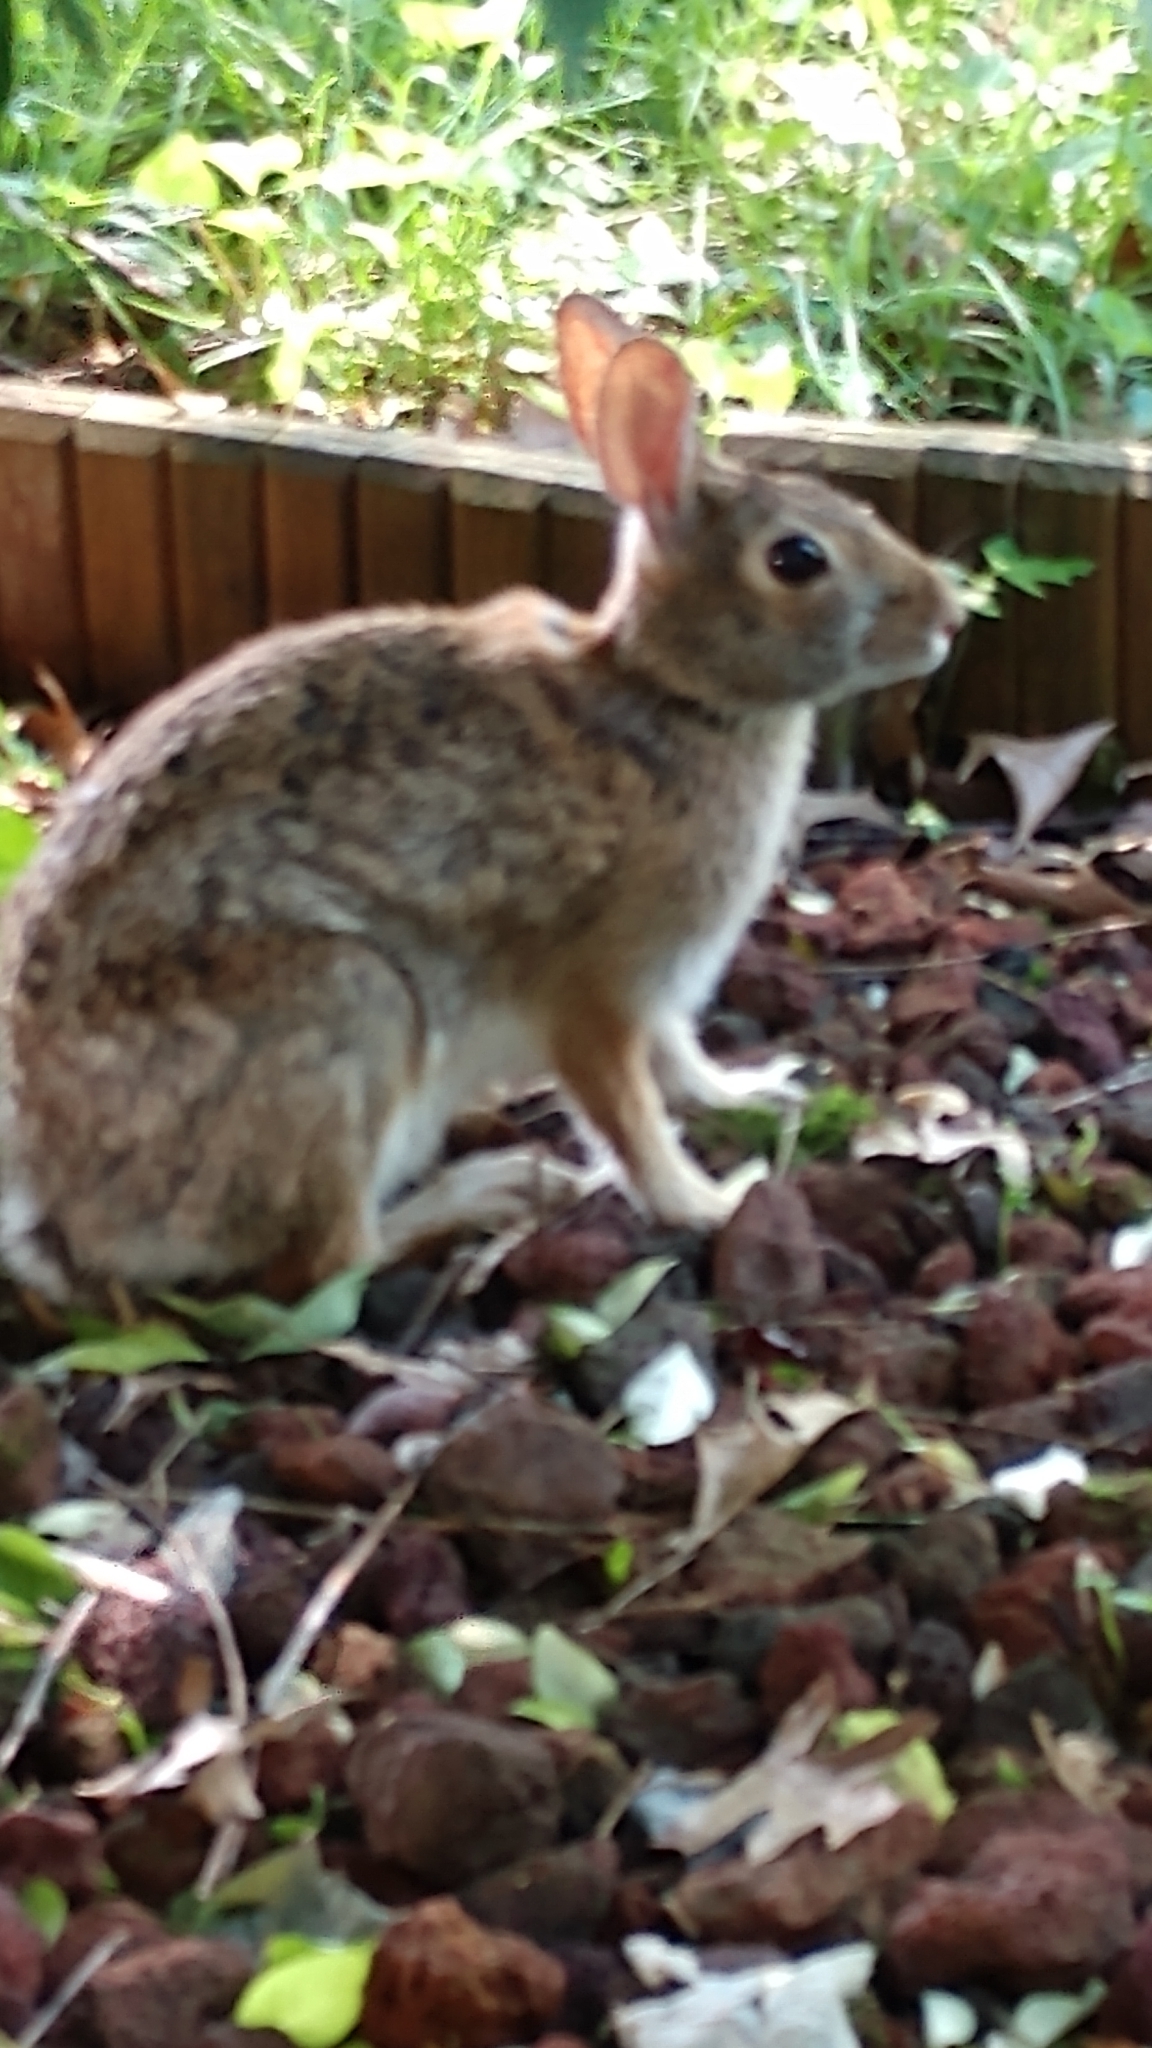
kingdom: Animalia
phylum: Chordata
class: Mammalia
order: Lagomorpha
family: Leporidae
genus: Sylvilagus
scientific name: Sylvilagus floridanus
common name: Eastern cottontail
